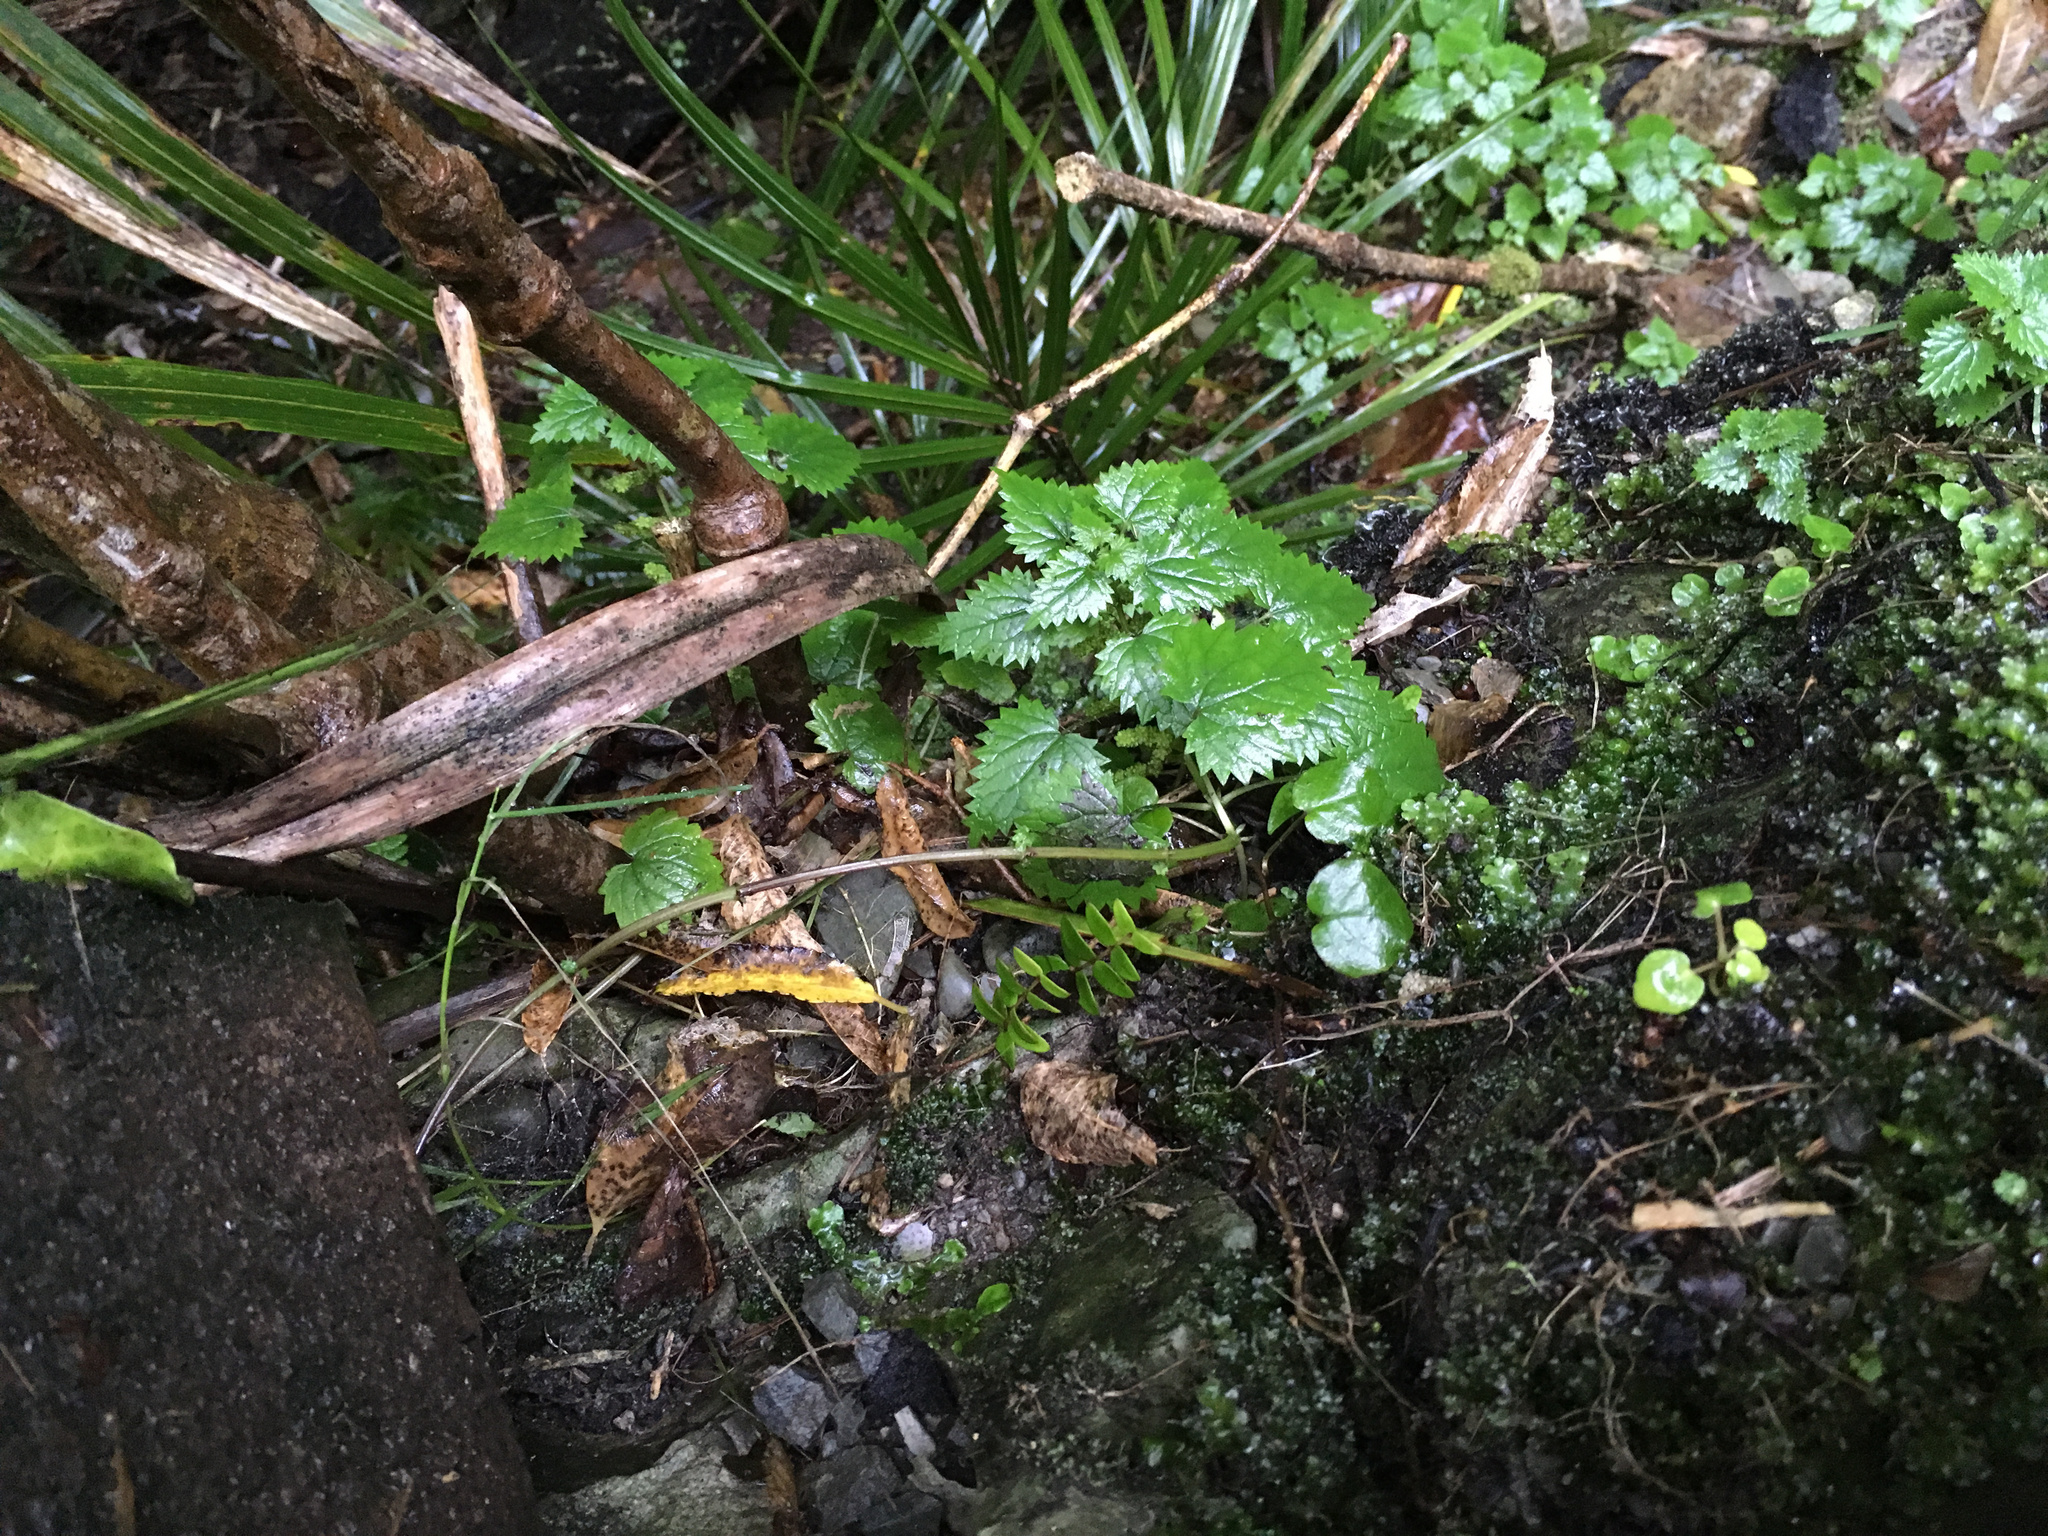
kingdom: Plantae
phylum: Tracheophyta
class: Magnoliopsida
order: Rosales
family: Urticaceae
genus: Urtica
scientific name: Urtica sykesii
